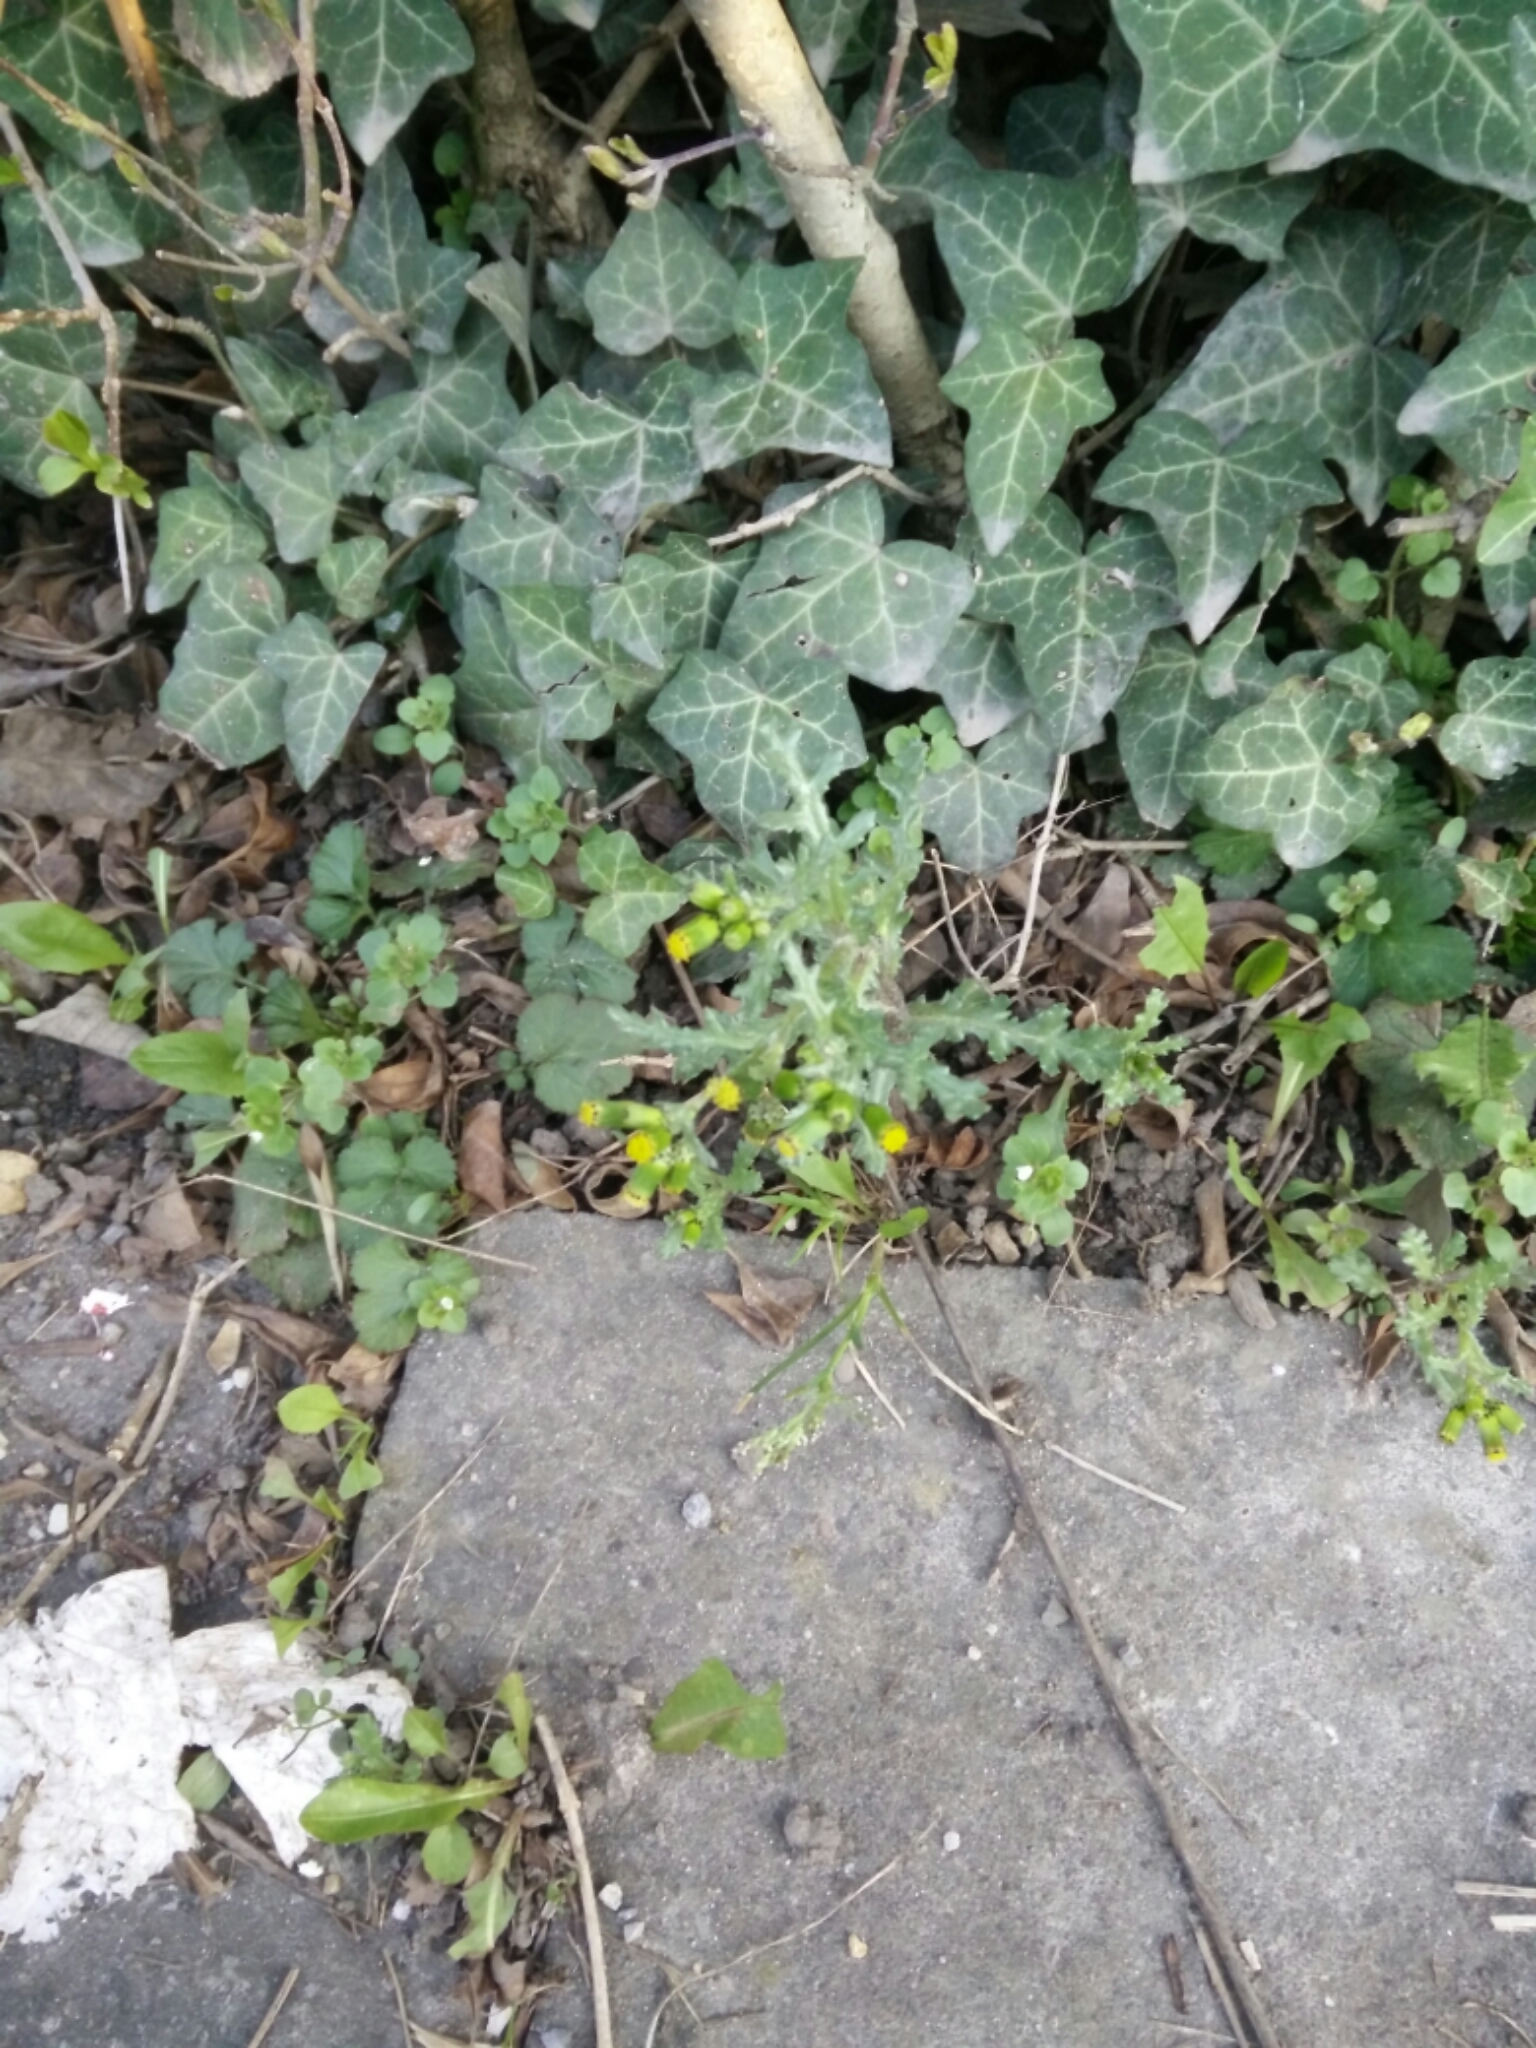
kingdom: Plantae
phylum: Tracheophyta
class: Magnoliopsida
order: Asterales
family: Asteraceae
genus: Senecio
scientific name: Senecio vulgaris
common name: Old-man-in-the-spring
